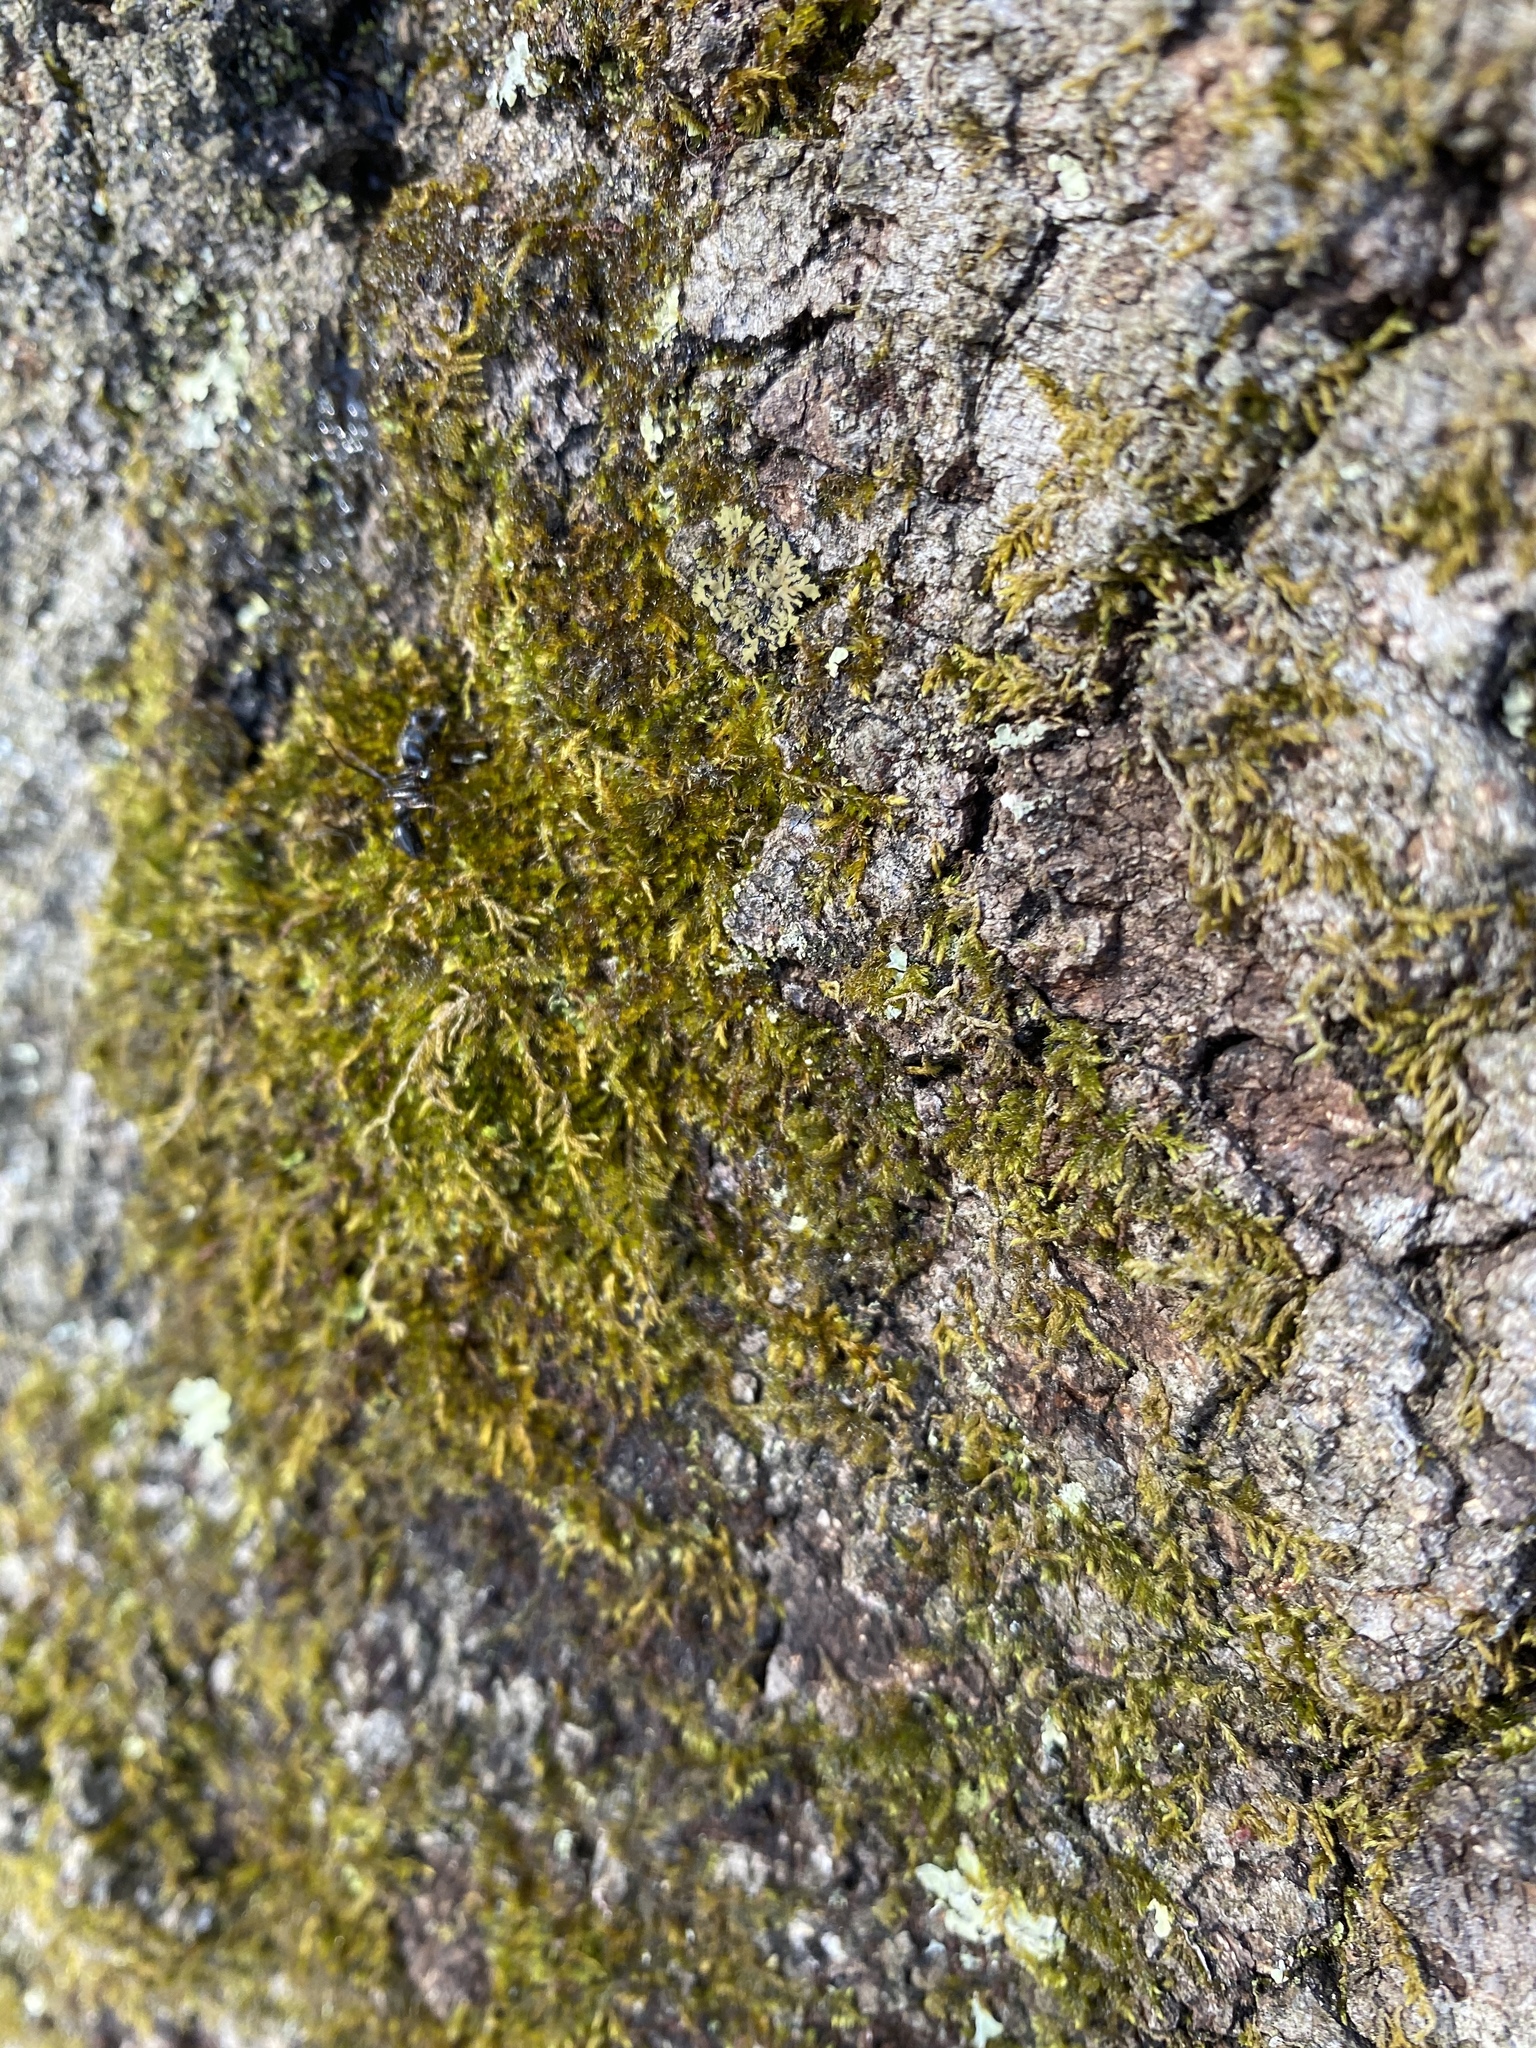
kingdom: Plantae
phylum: Bryophyta
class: Bryopsida
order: Hypnales
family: Entodontaceae
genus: Entodon
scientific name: Entodon seductrix
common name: Round-stemmed entodon moss
